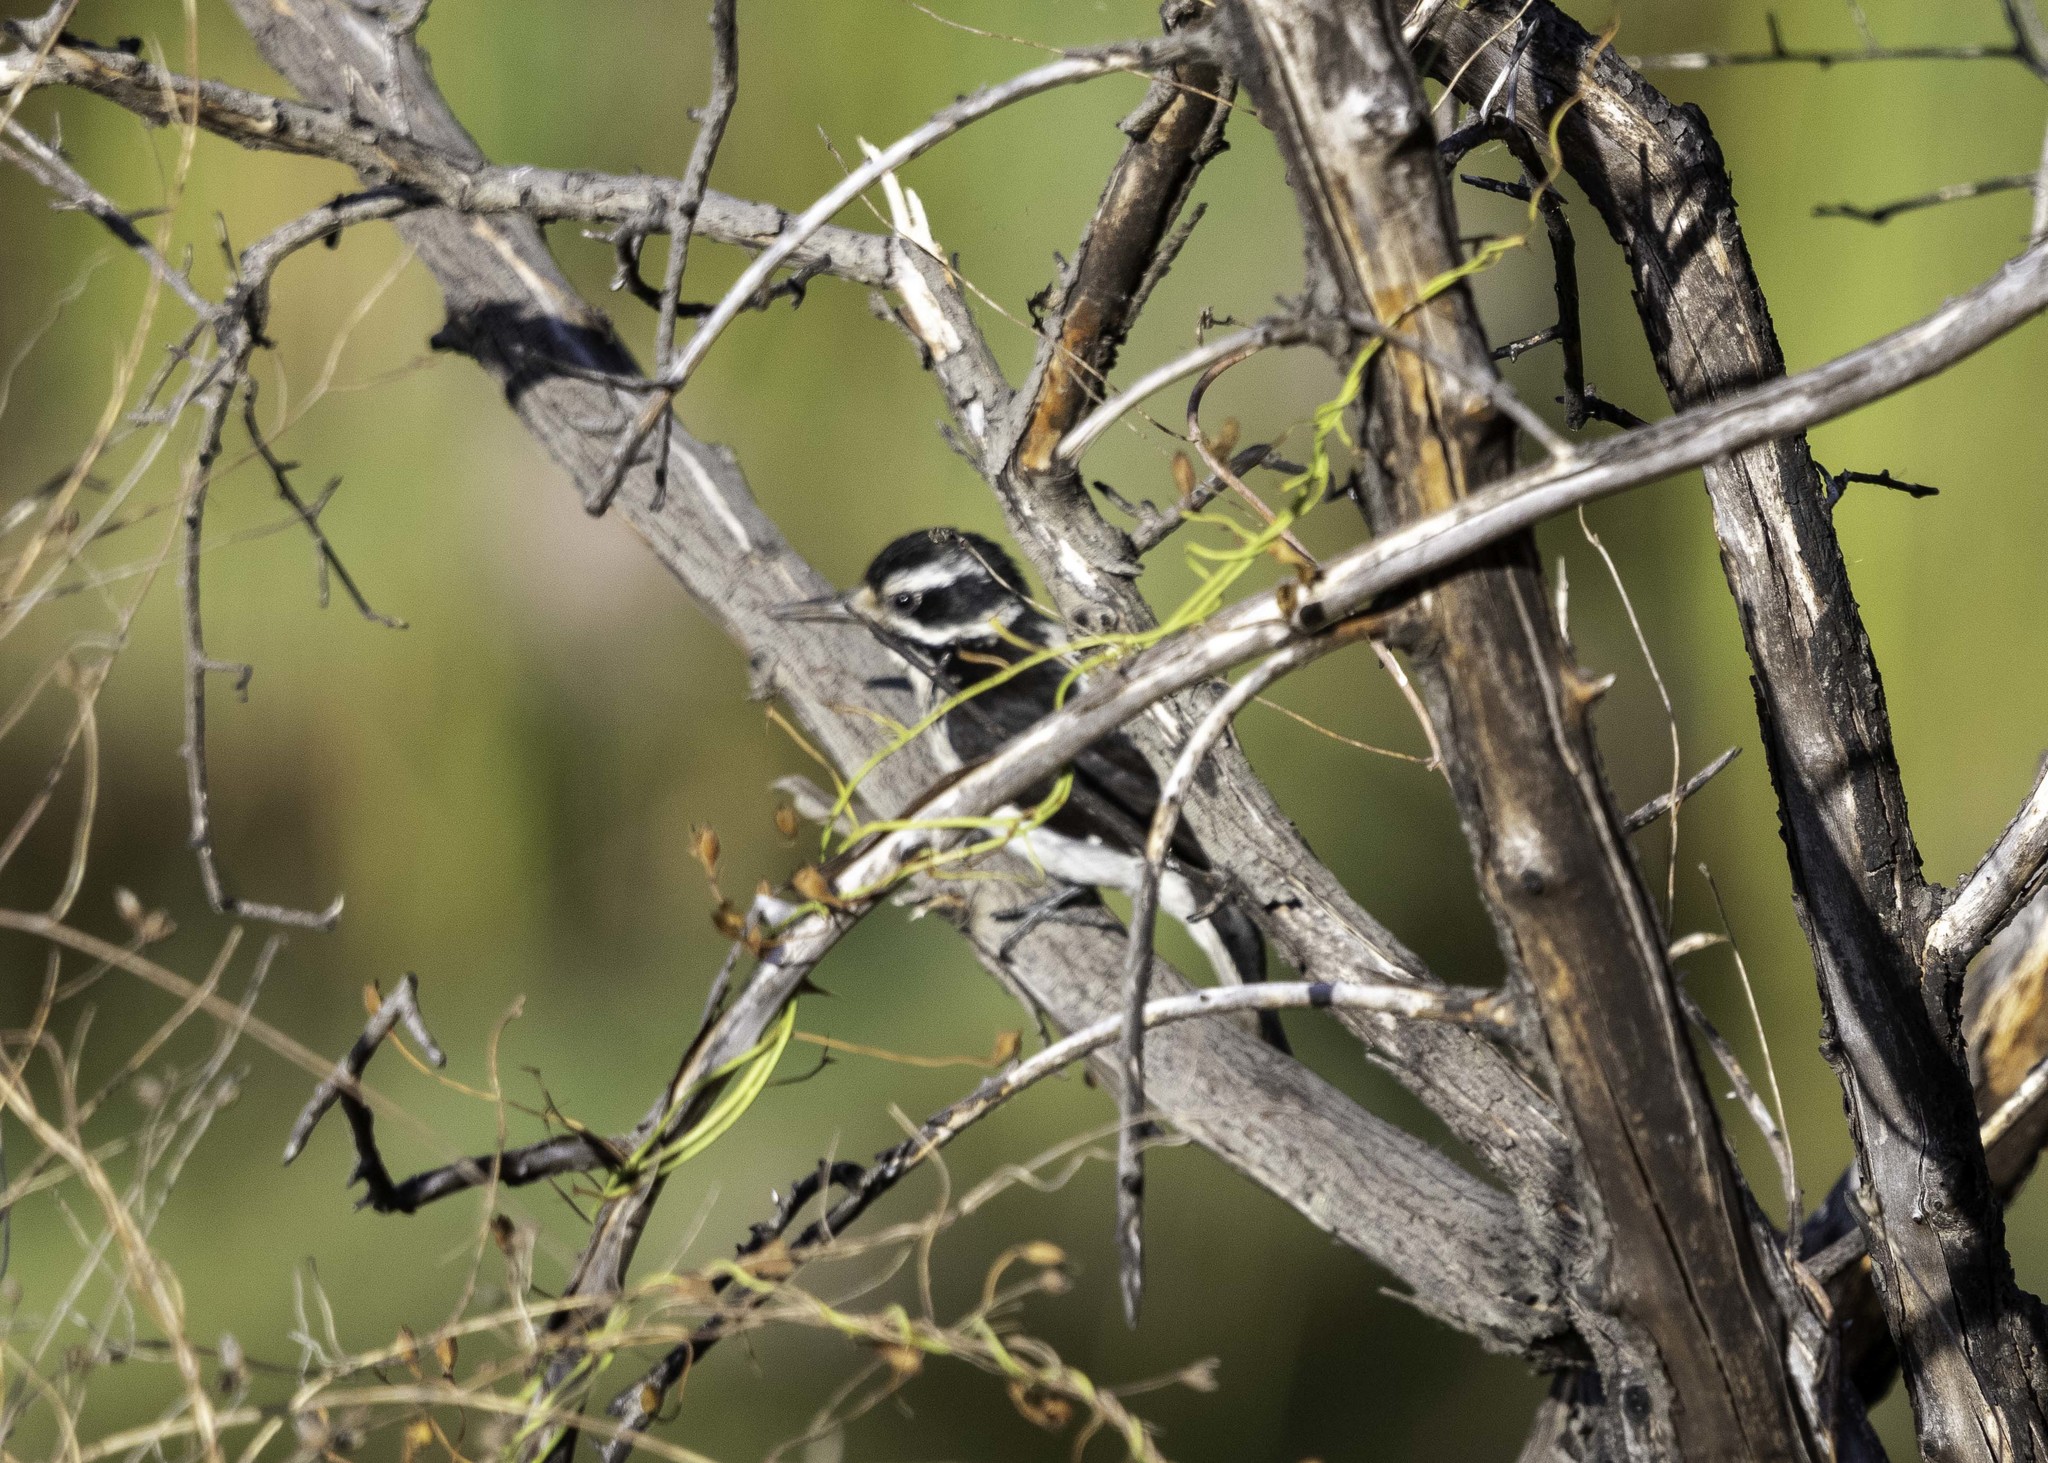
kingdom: Animalia
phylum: Chordata
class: Aves
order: Piciformes
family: Picidae
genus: Leuconotopicus
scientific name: Leuconotopicus villosus
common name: Hairy woodpecker
